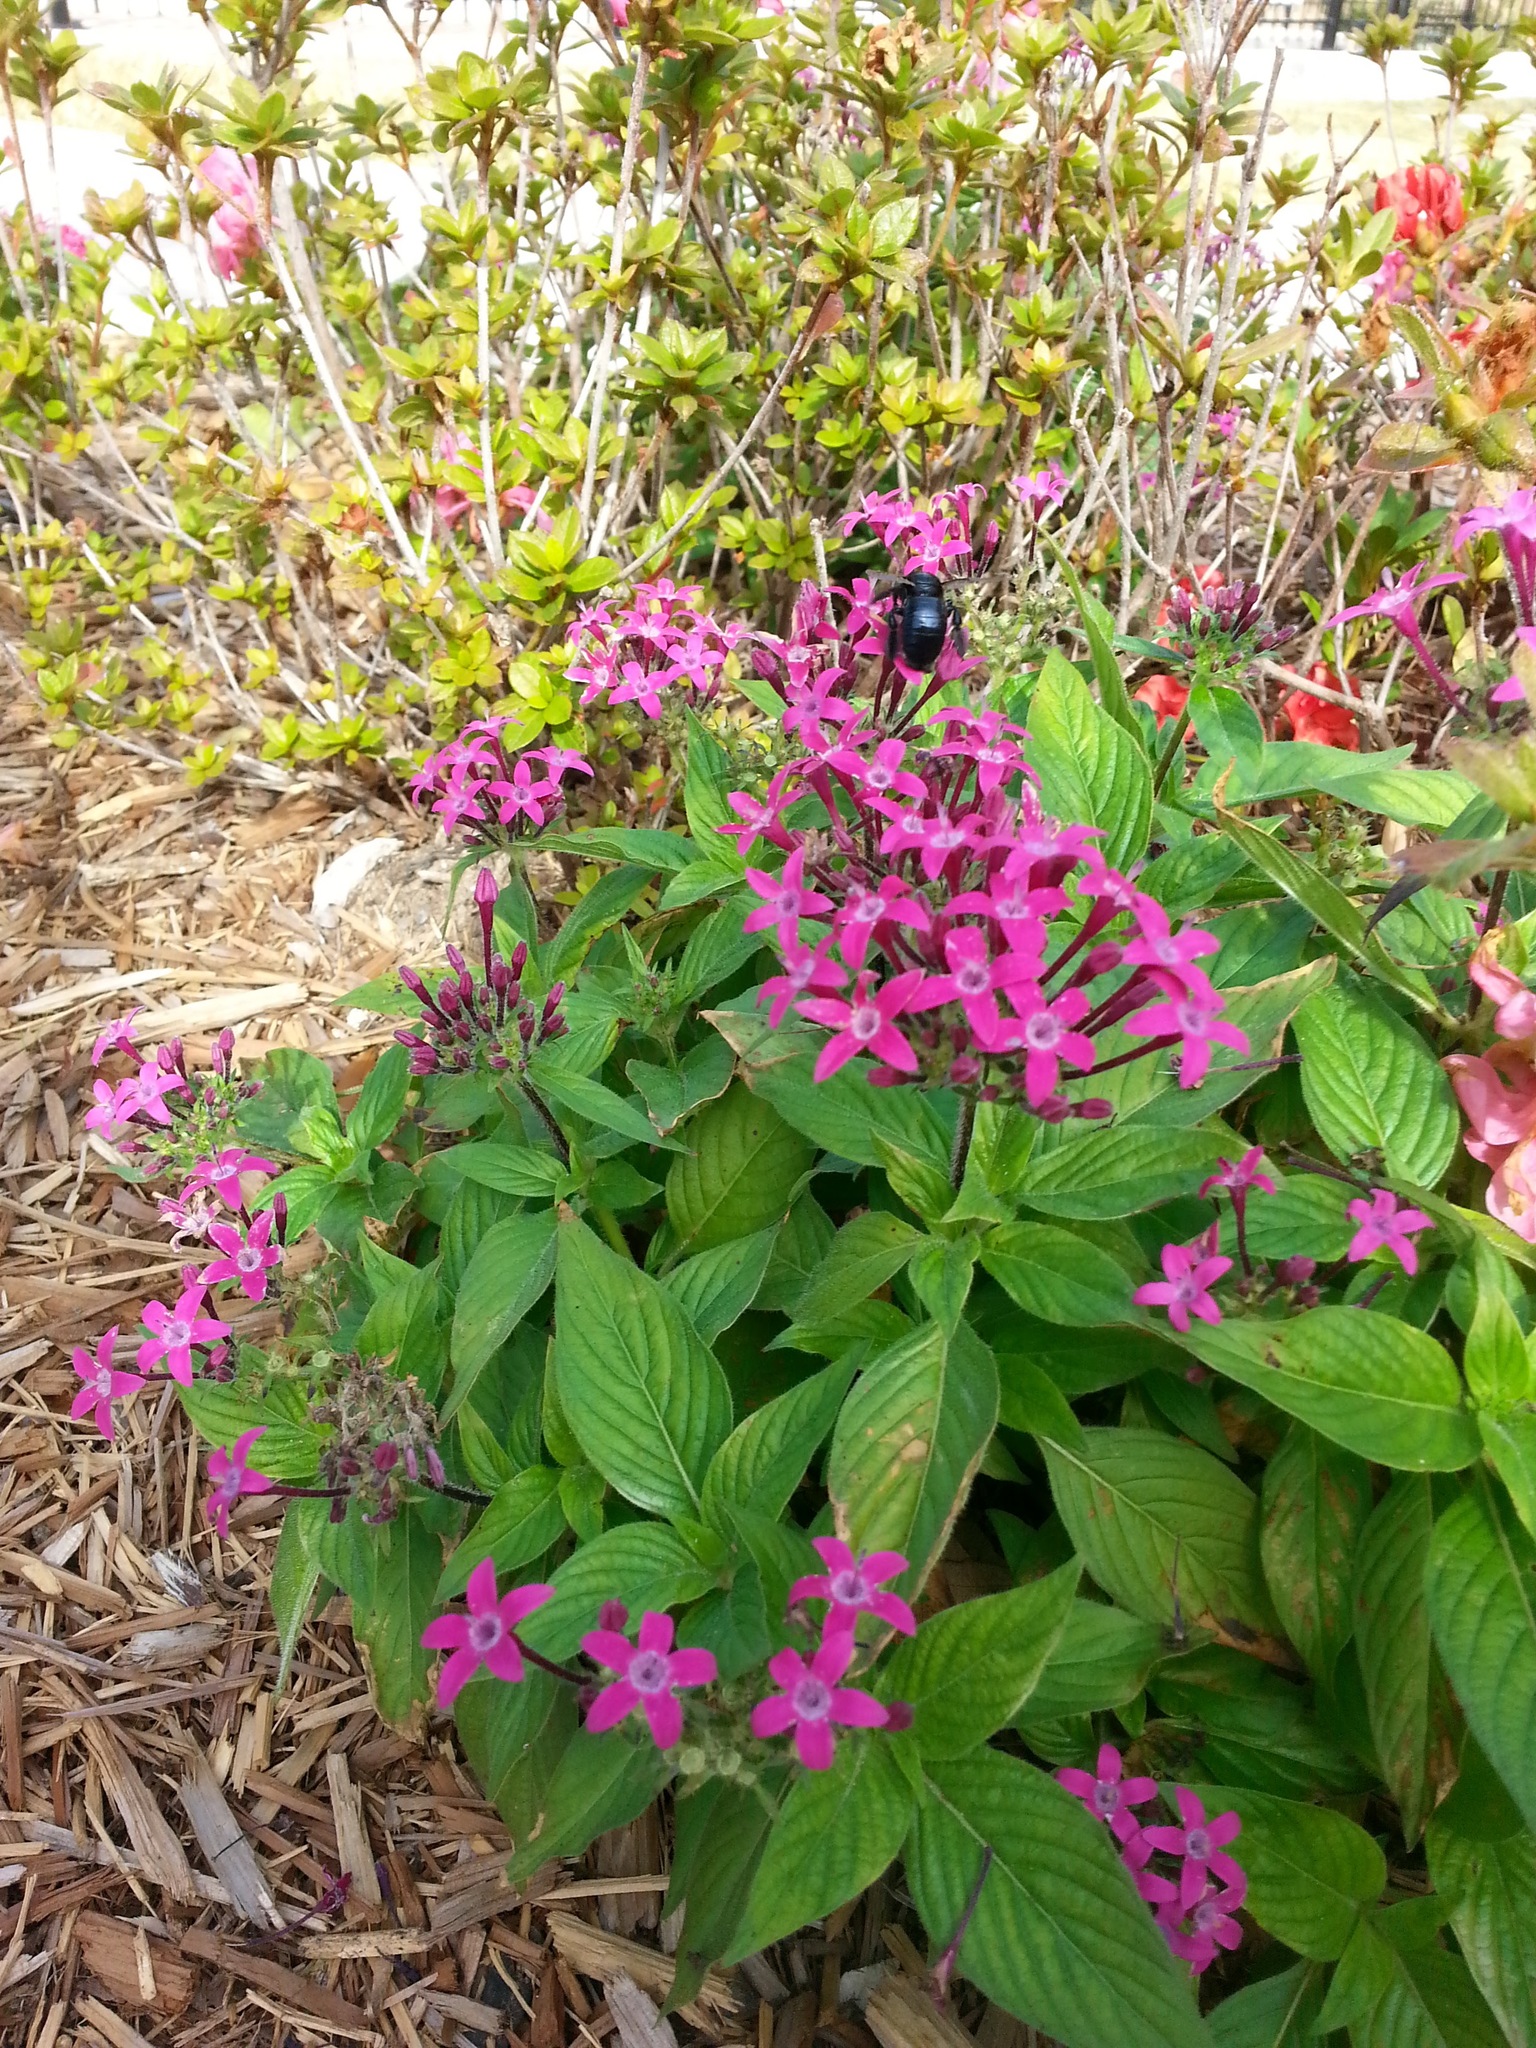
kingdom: Animalia
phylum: Arthropoda
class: Insecta
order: Hymenoptera
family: Apidae
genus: Xylocopa
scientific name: Xylocopa micans
